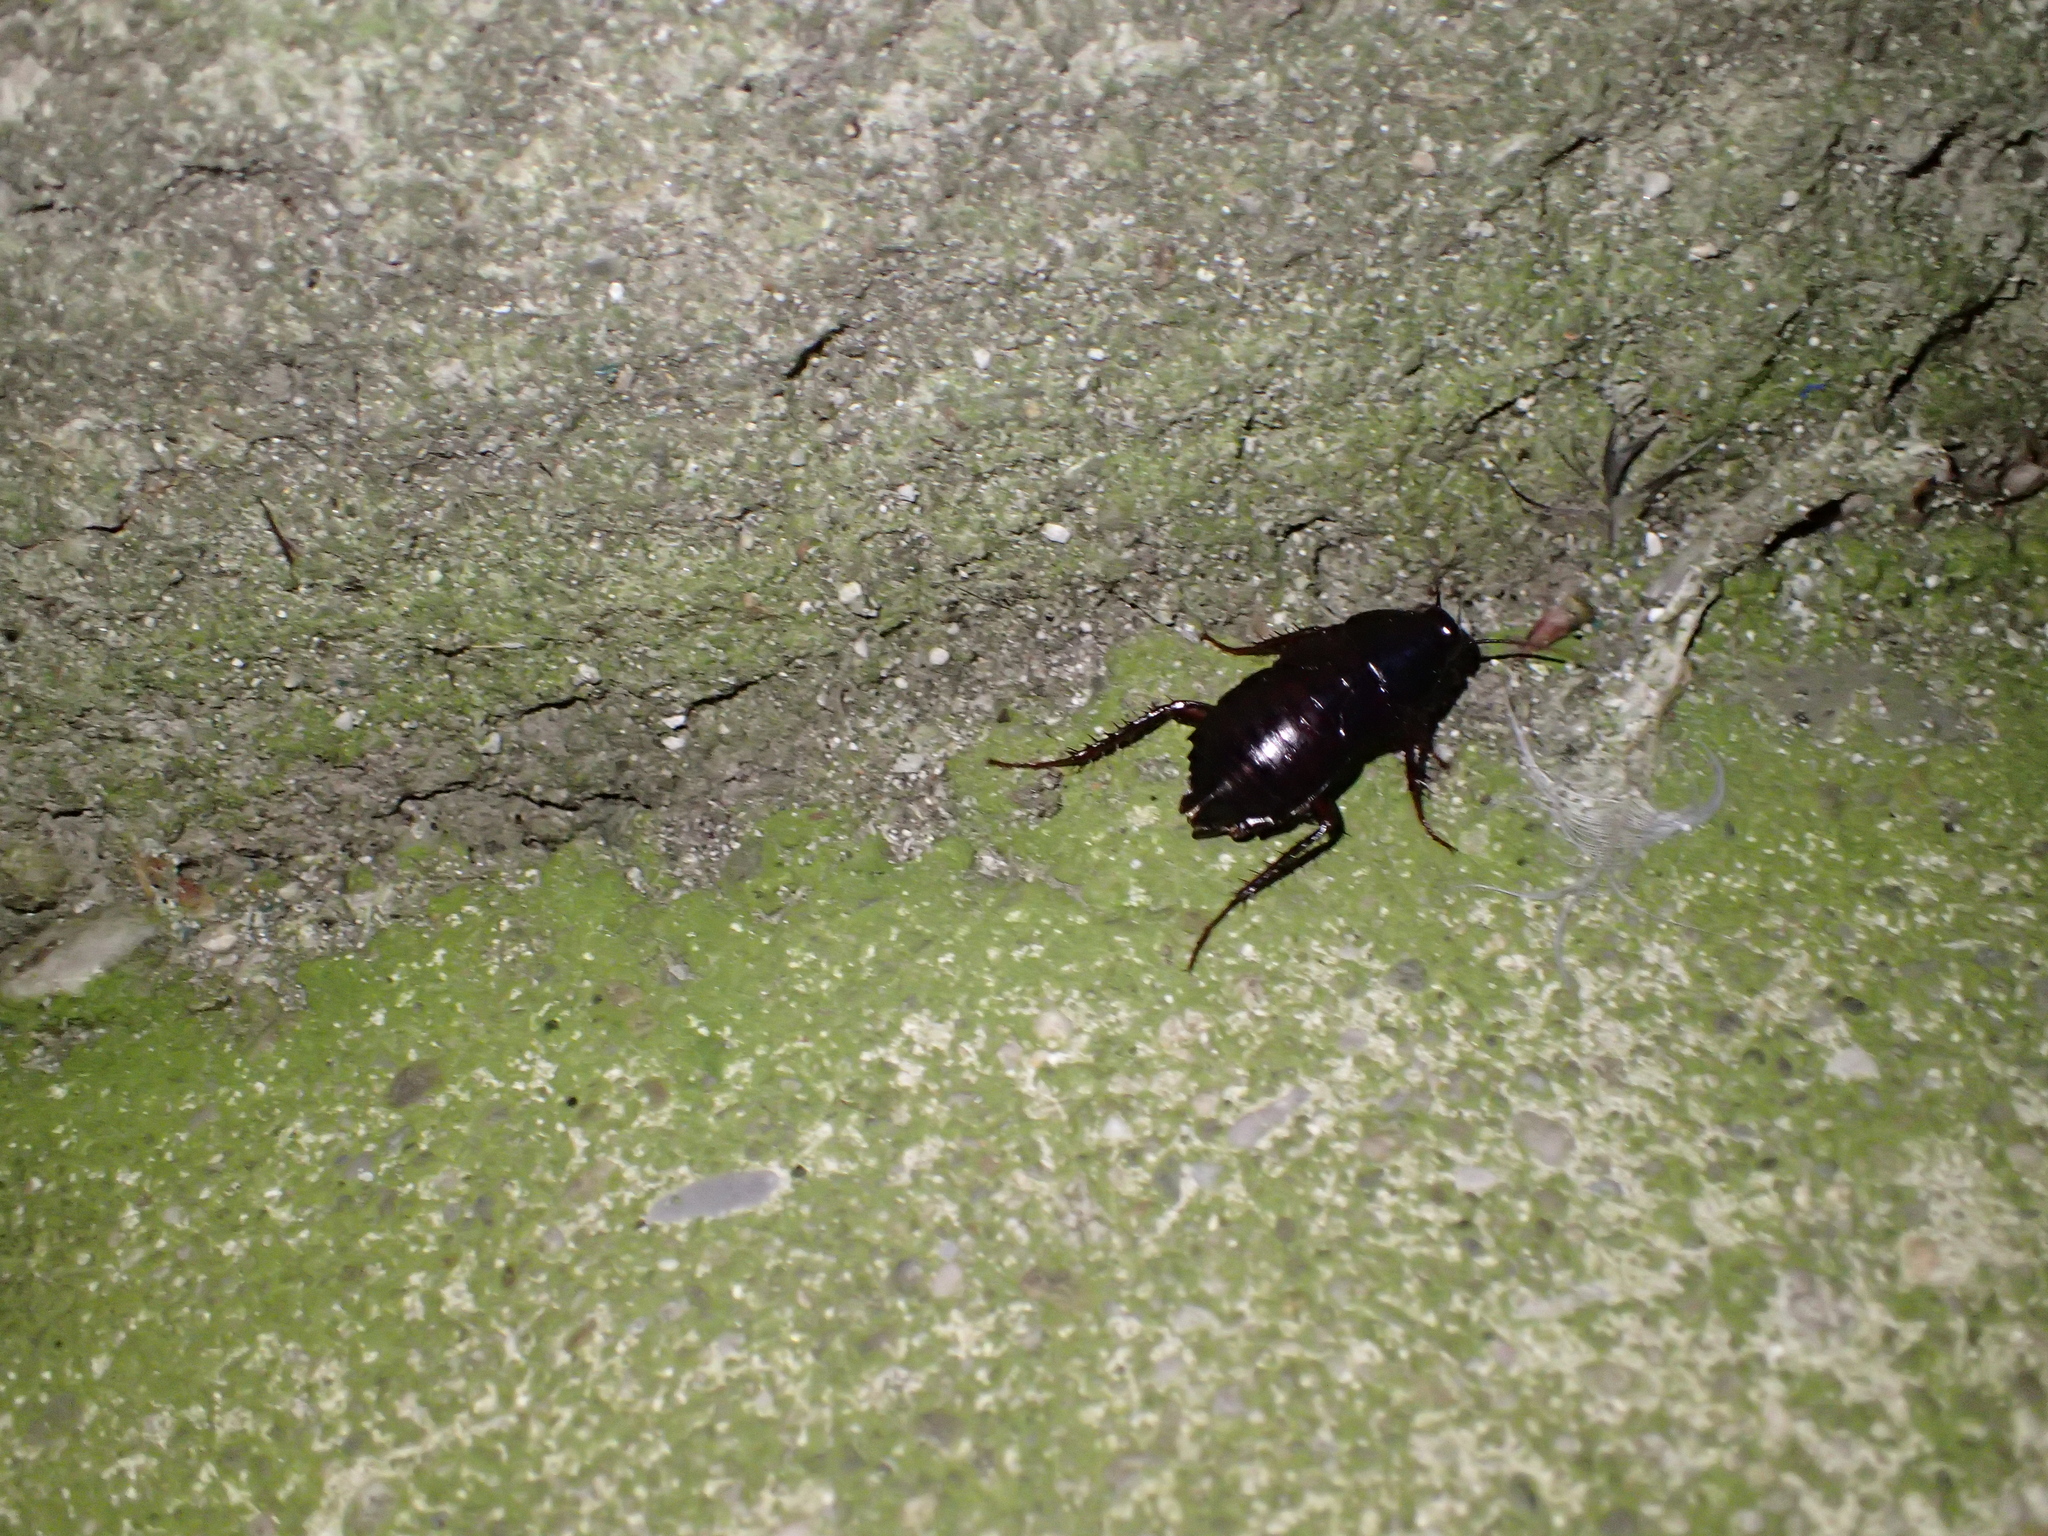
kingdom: Animalia
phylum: Arthropoda
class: Insecta
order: Blattodea
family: Blattidae
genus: Blatta
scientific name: Blatta orientalis
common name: Oriental cockroach
